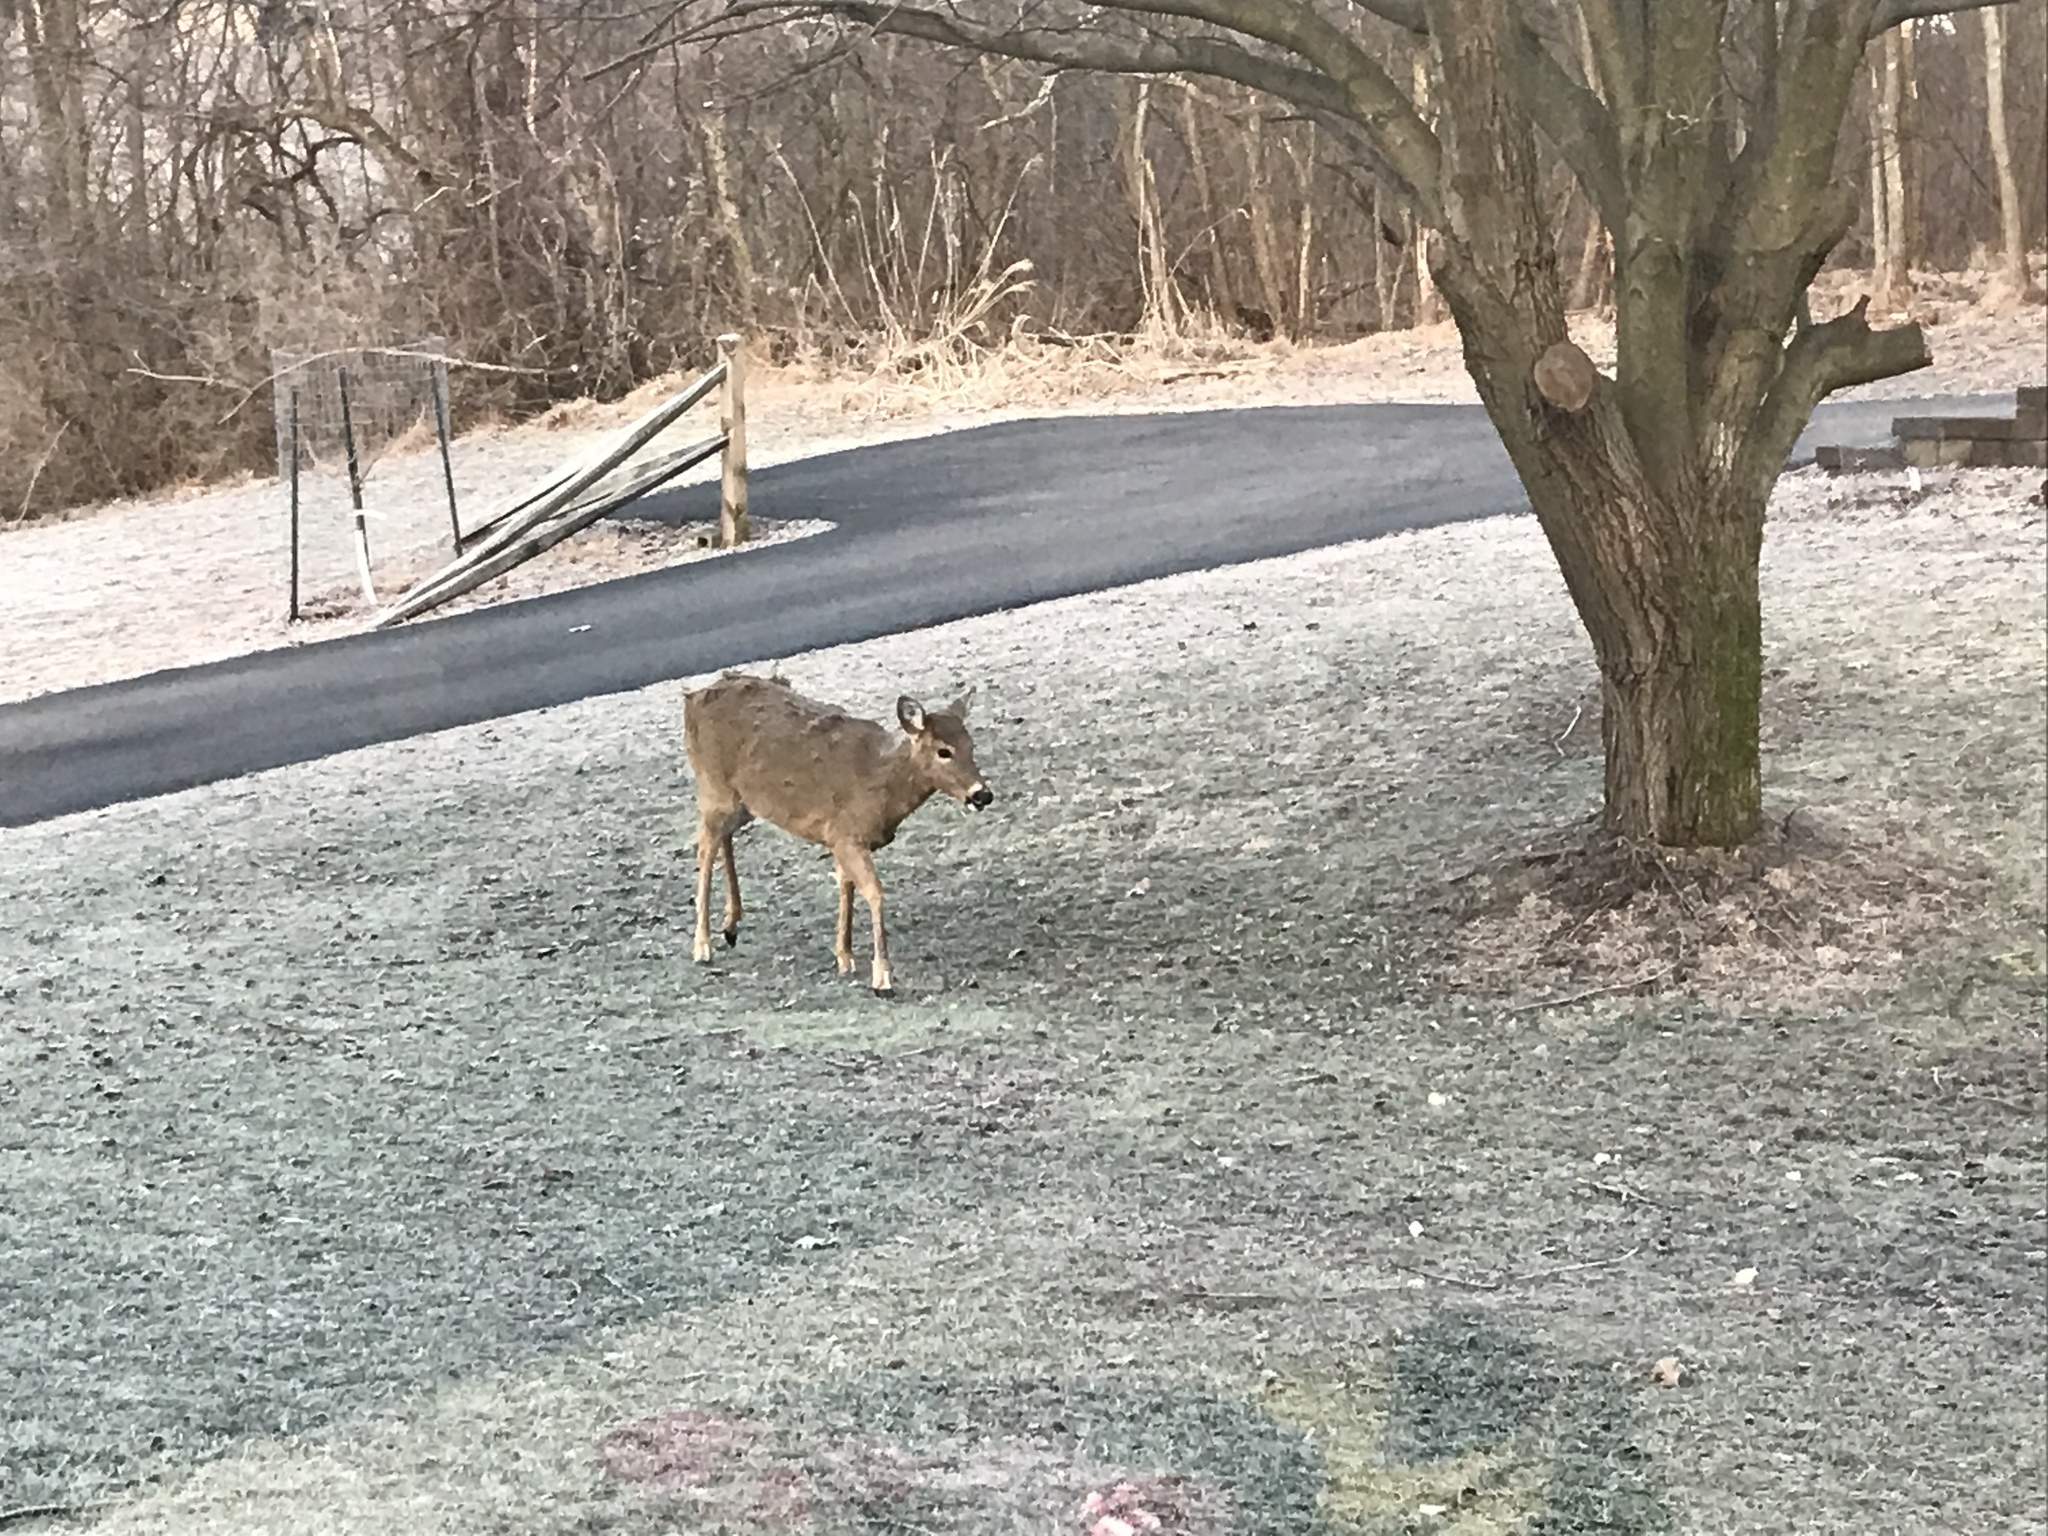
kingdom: Animalia
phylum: Chordata
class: Mammalia
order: Artiodactyla
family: Cervidae
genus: Odocoileus
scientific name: Odocoileus virginianus
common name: White-tailed deer
